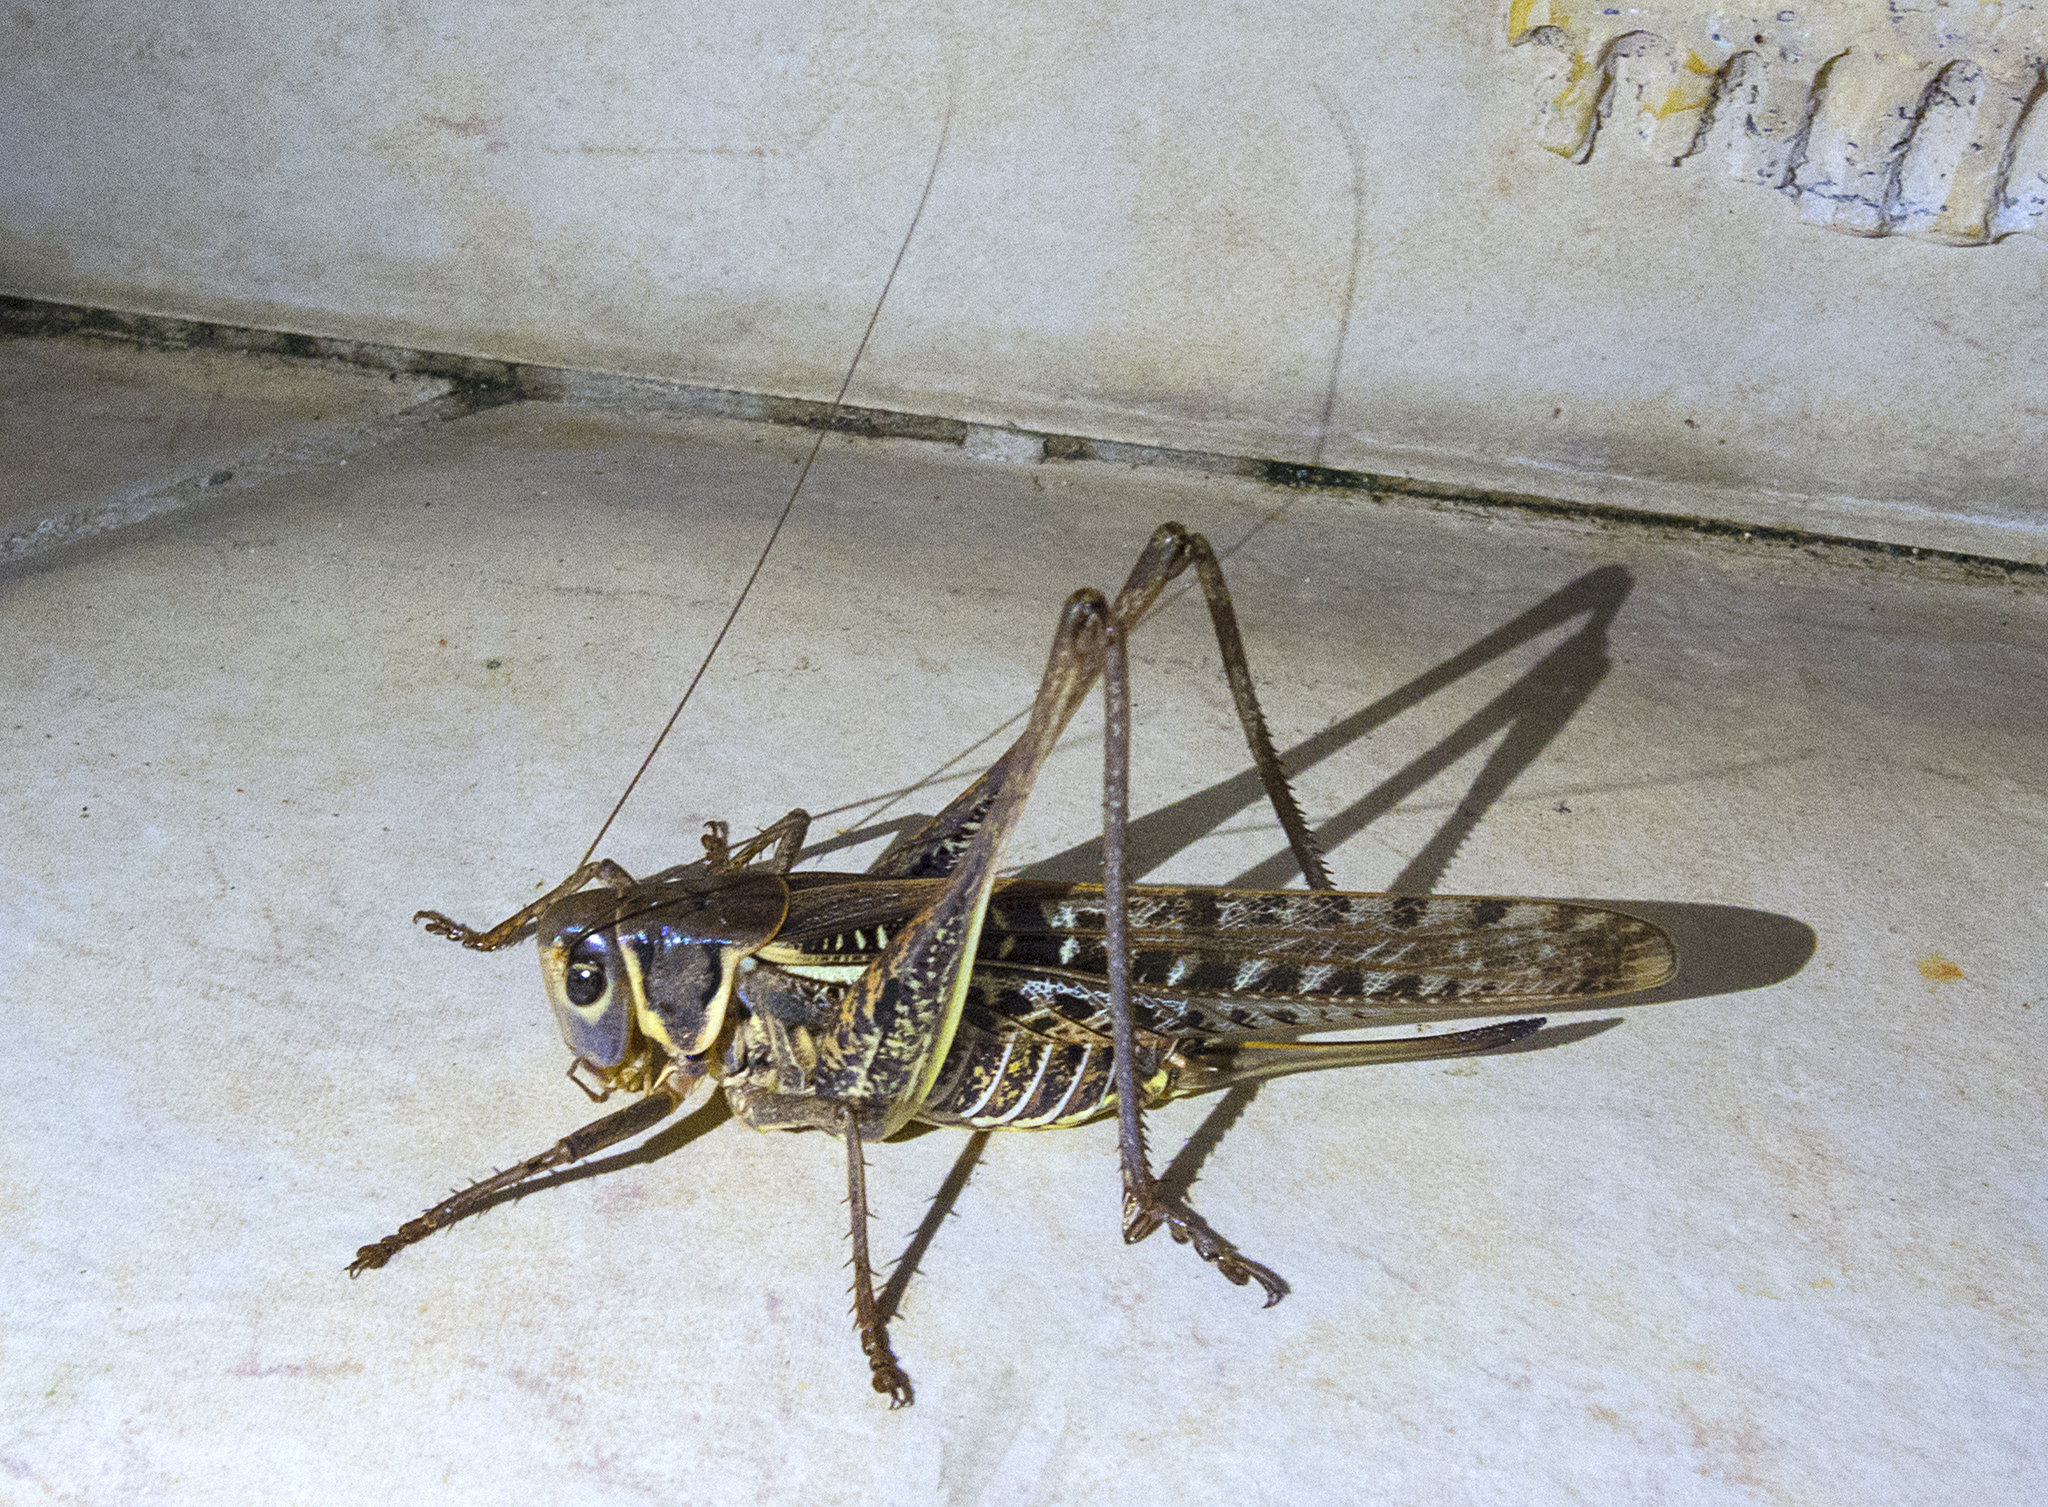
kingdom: Animalia
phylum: Arthropoda
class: Insecta
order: Orthoptera
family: Tettigoniidae
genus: Decticus
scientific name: Decticus albifrons
